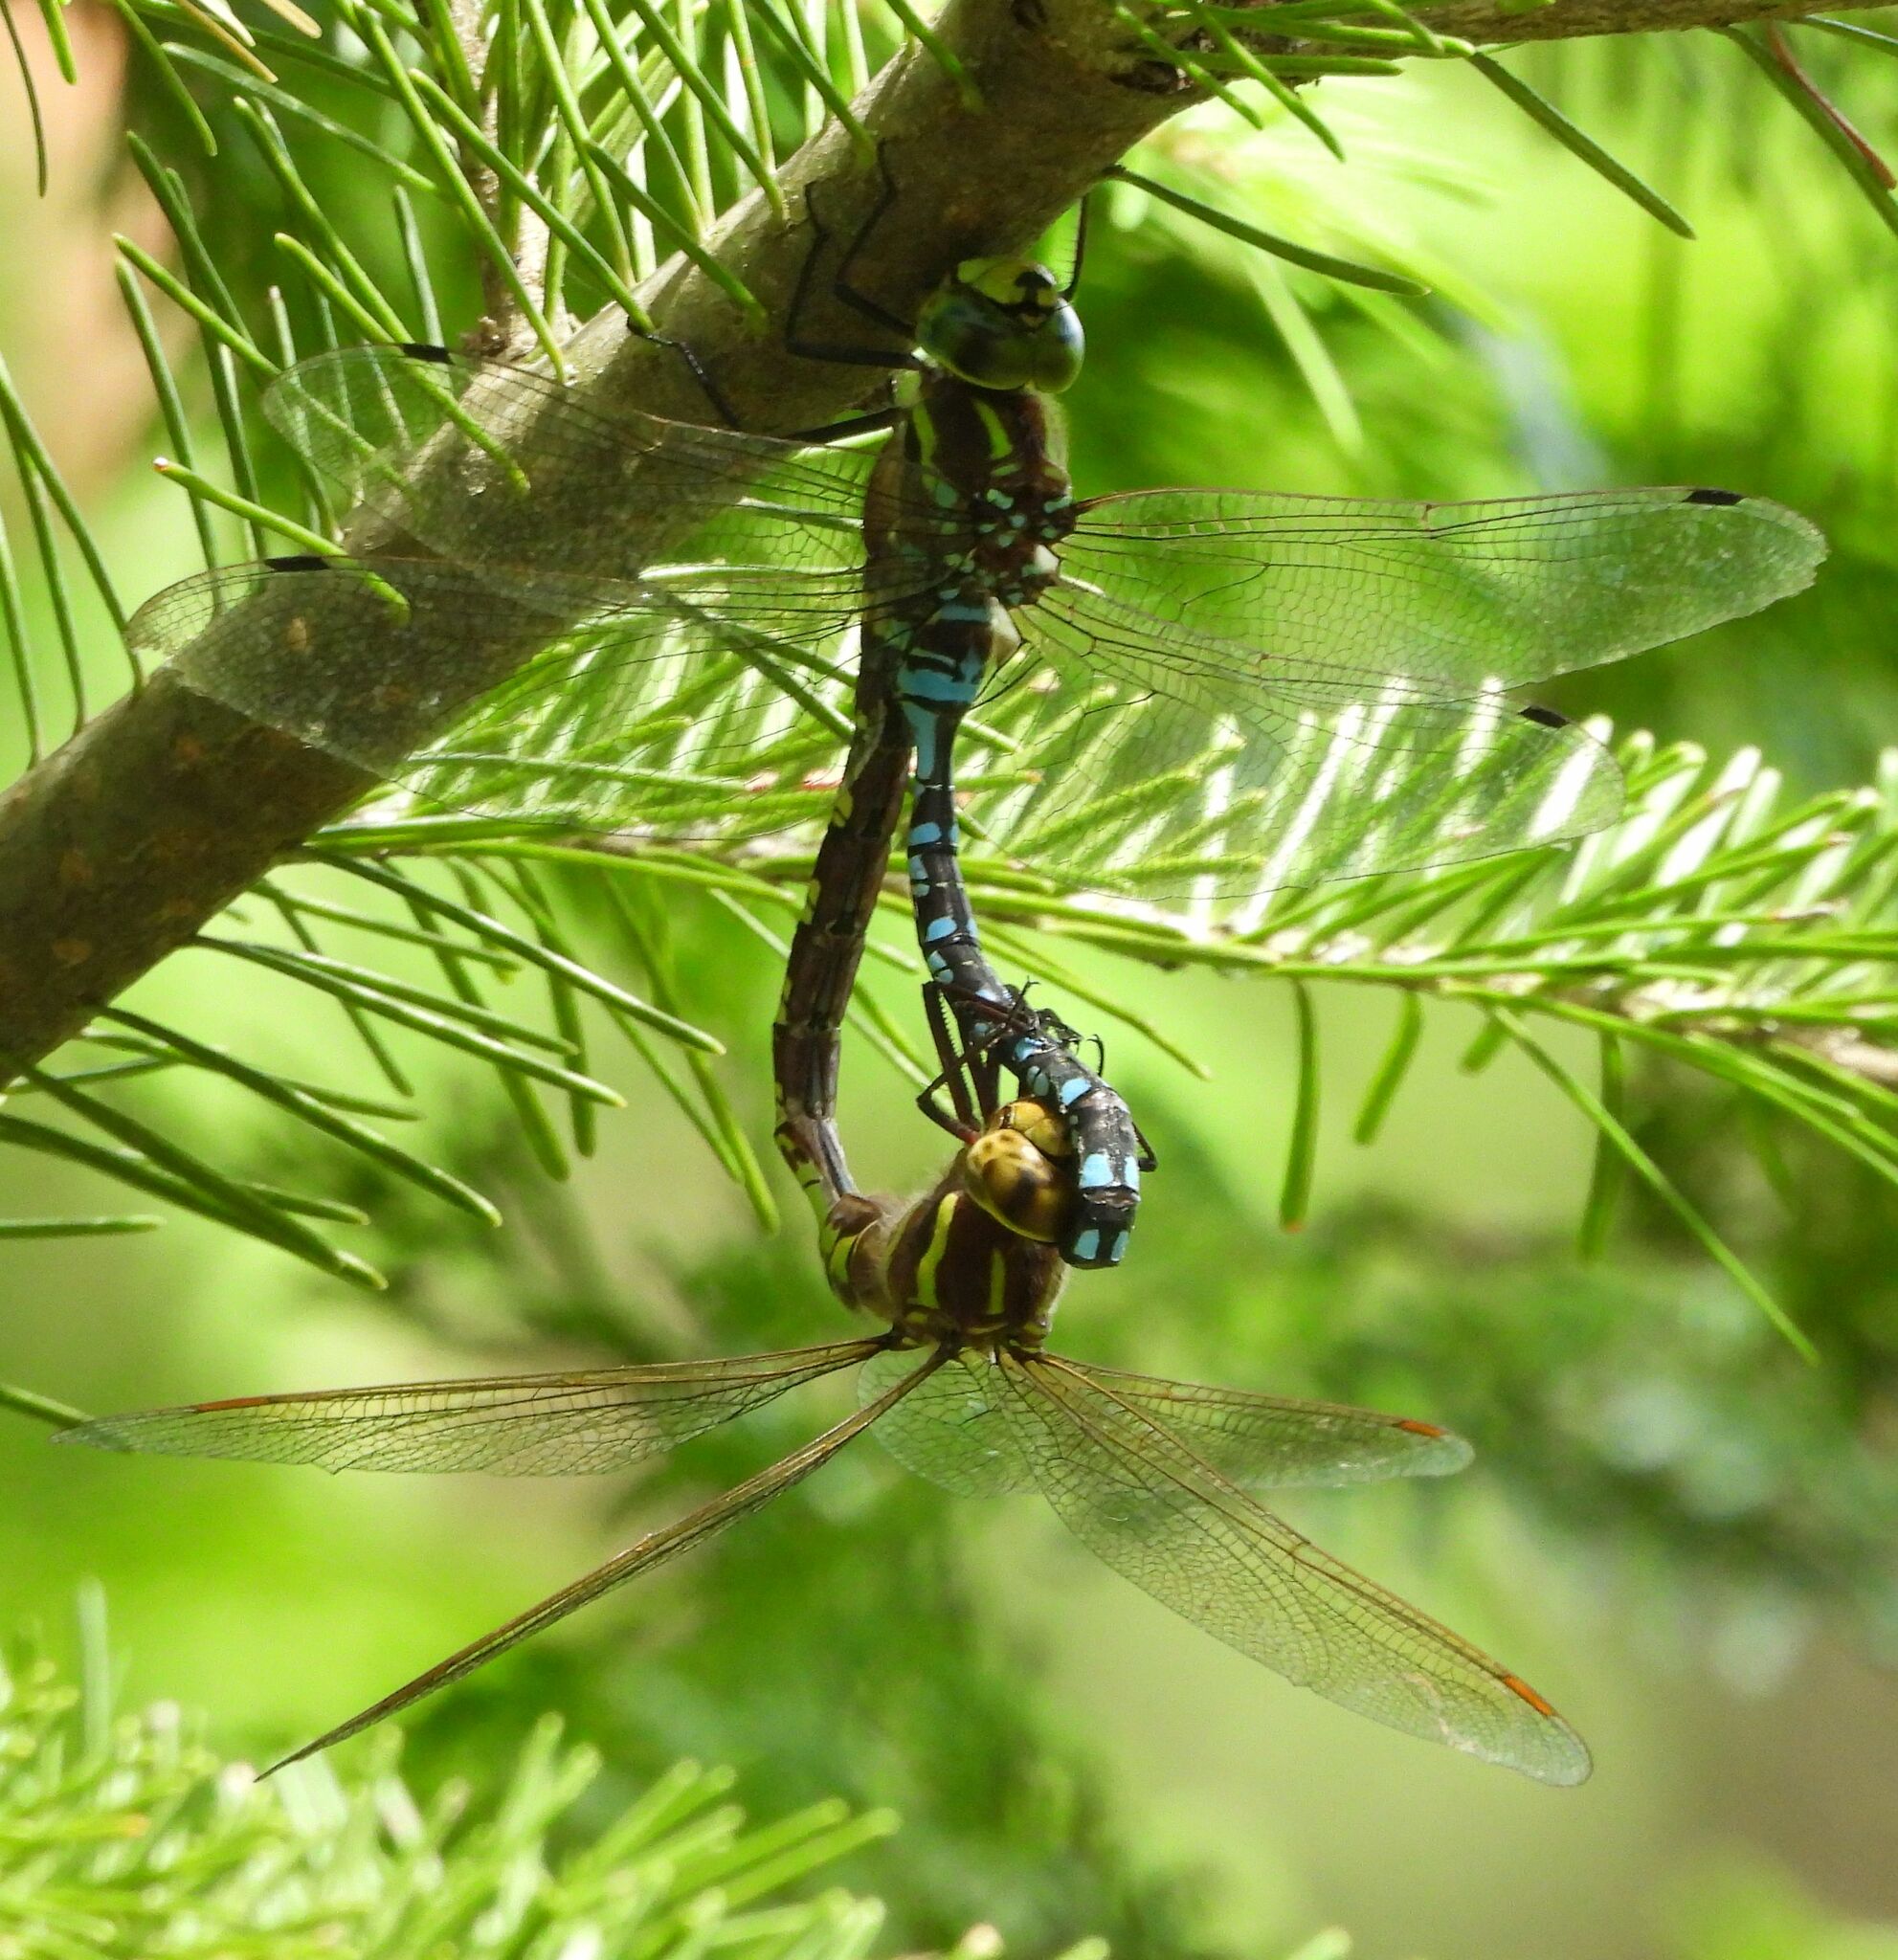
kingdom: Animalia
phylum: Arthropoda
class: Insecta
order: Odonata
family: Aeshnidae
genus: Aeshna
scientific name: Aeshna constricta
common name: Lance-tipped darner
